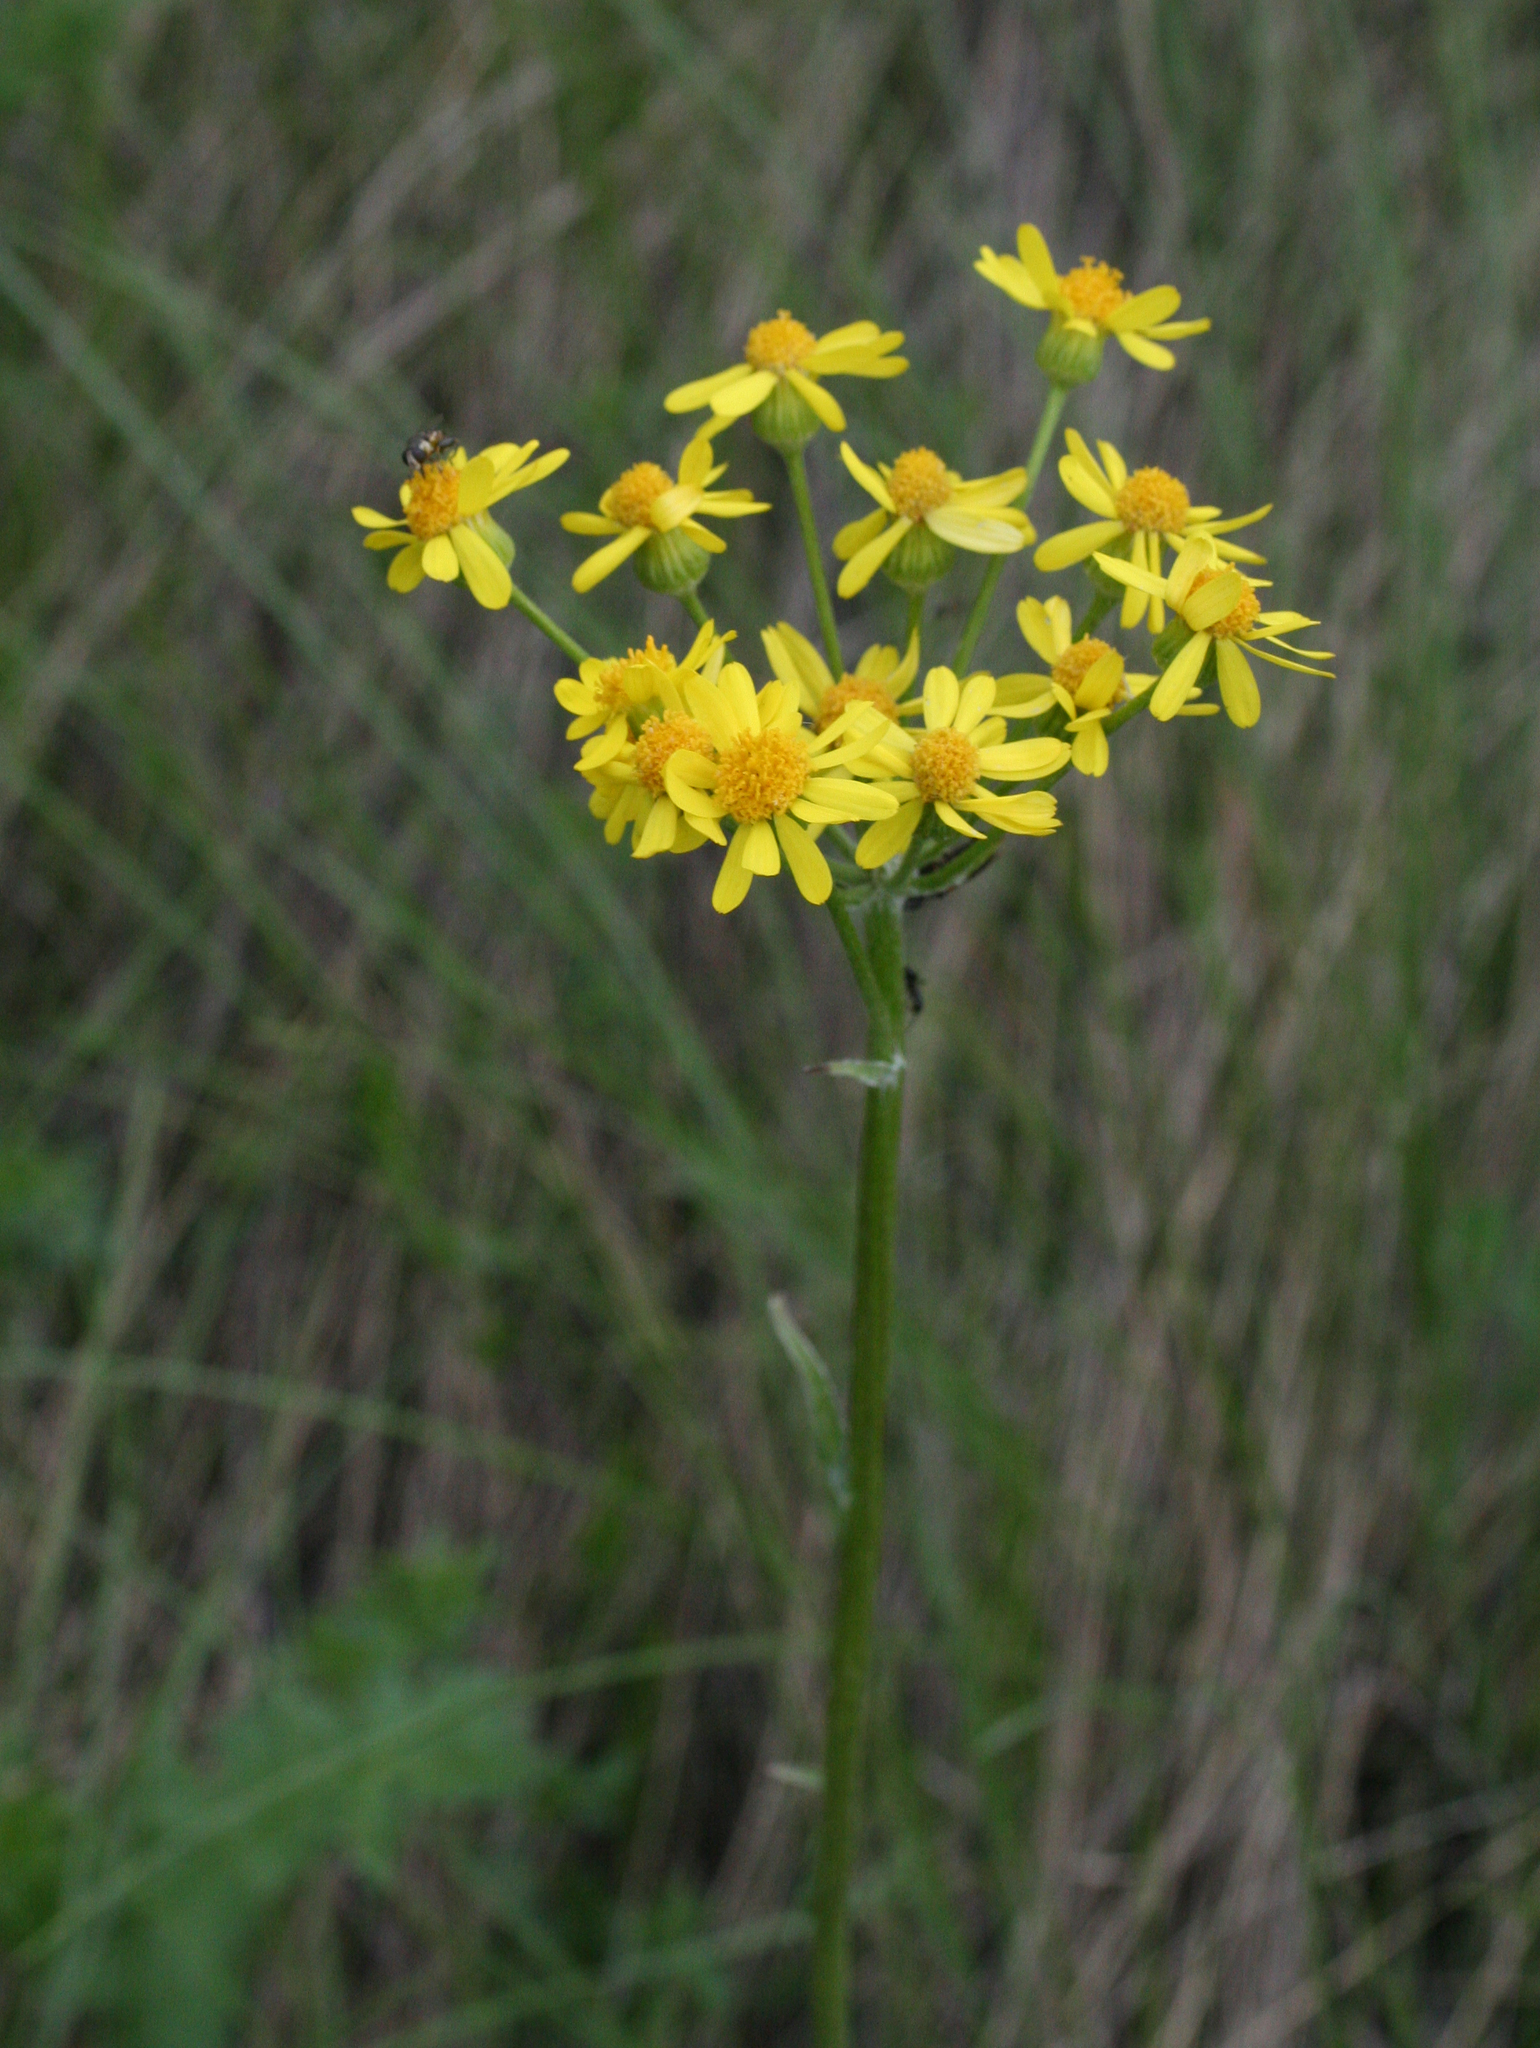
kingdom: Plantae
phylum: Tracheophyta
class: Magnoliopsida
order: Asterales
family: Asteraceae
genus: Tephroseris
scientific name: Tephroseris integrifolia
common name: Field fleawort
